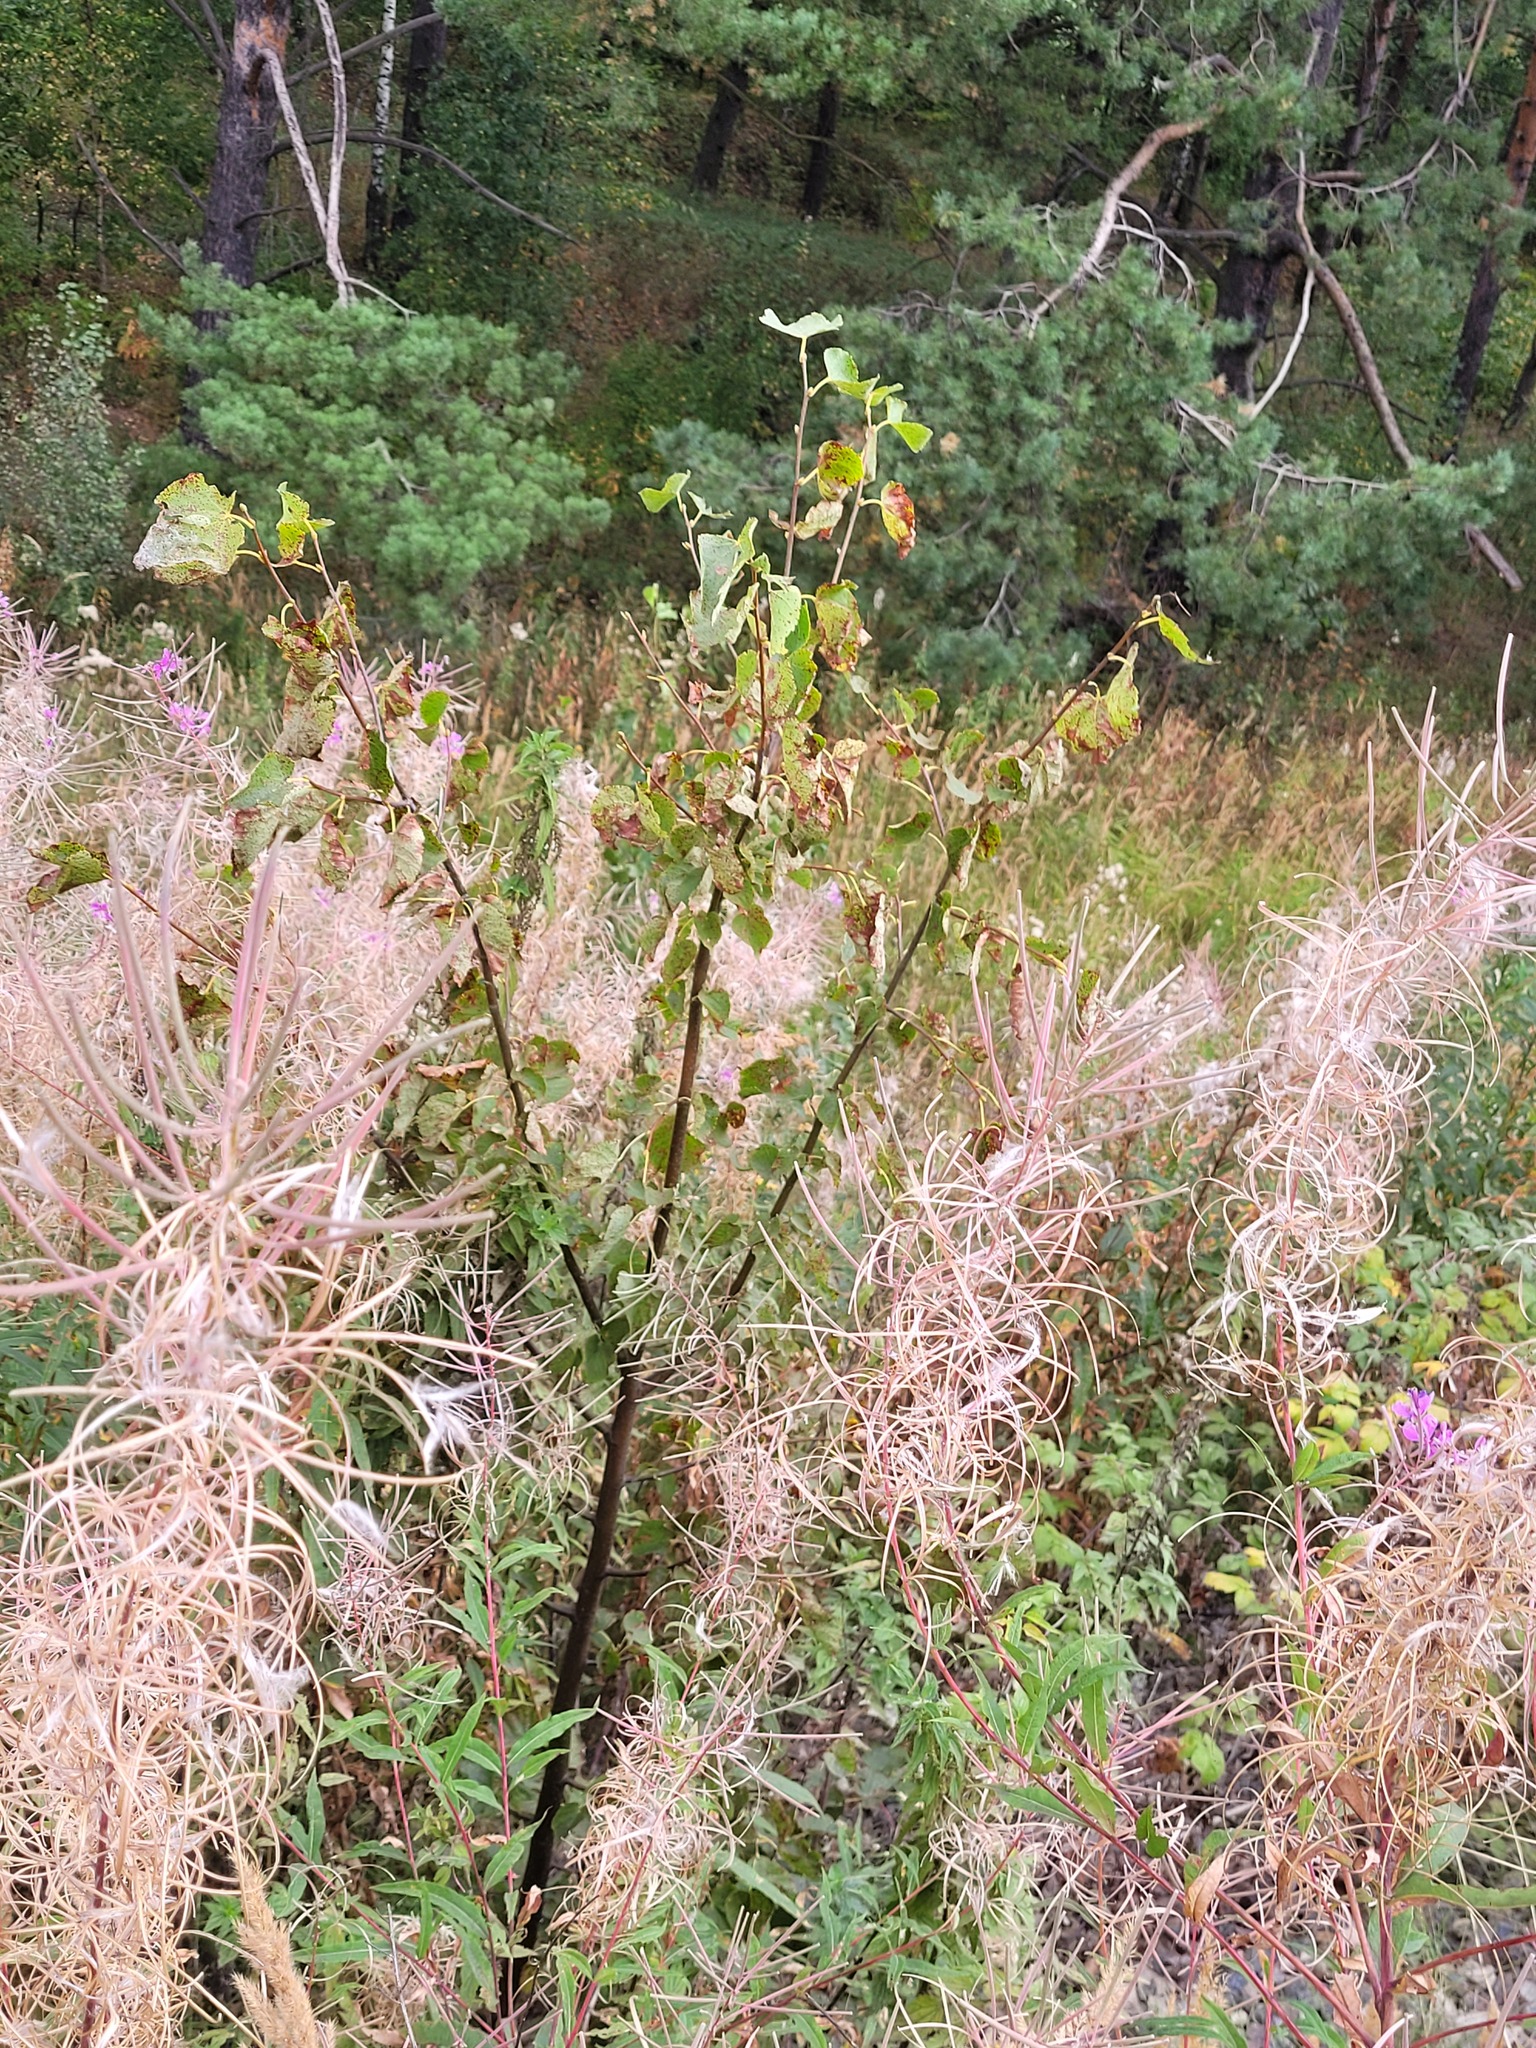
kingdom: Plantae
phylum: Tracheophyta
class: Magnoliopsida
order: Malvales
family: Malvaceae
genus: Tilia
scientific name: Tilia cordata
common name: Small-leaved lime
